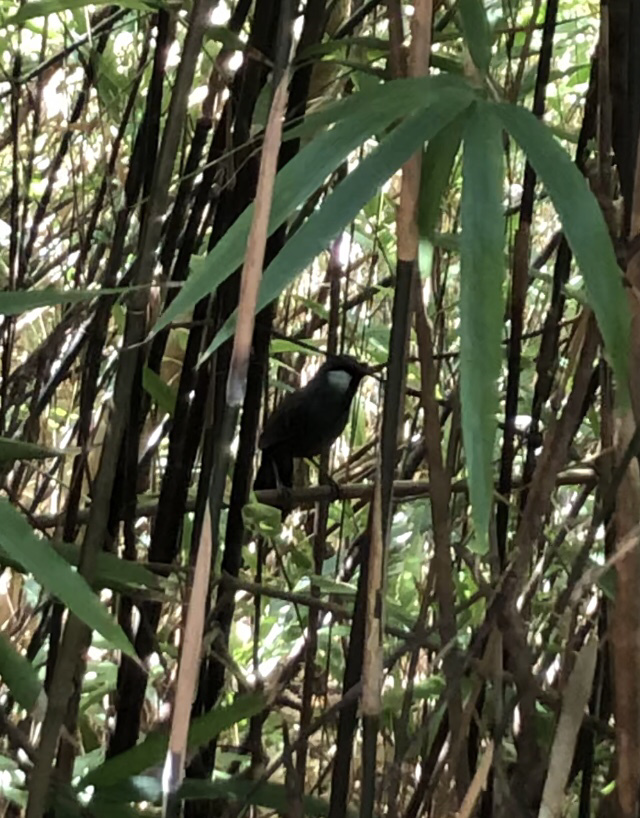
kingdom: Animalia
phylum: Chordata
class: Aves
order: Passeriformes
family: Leiothrichidae
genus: Garrulax
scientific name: Garrulax chinensis
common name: Black-throated laughingthrush
